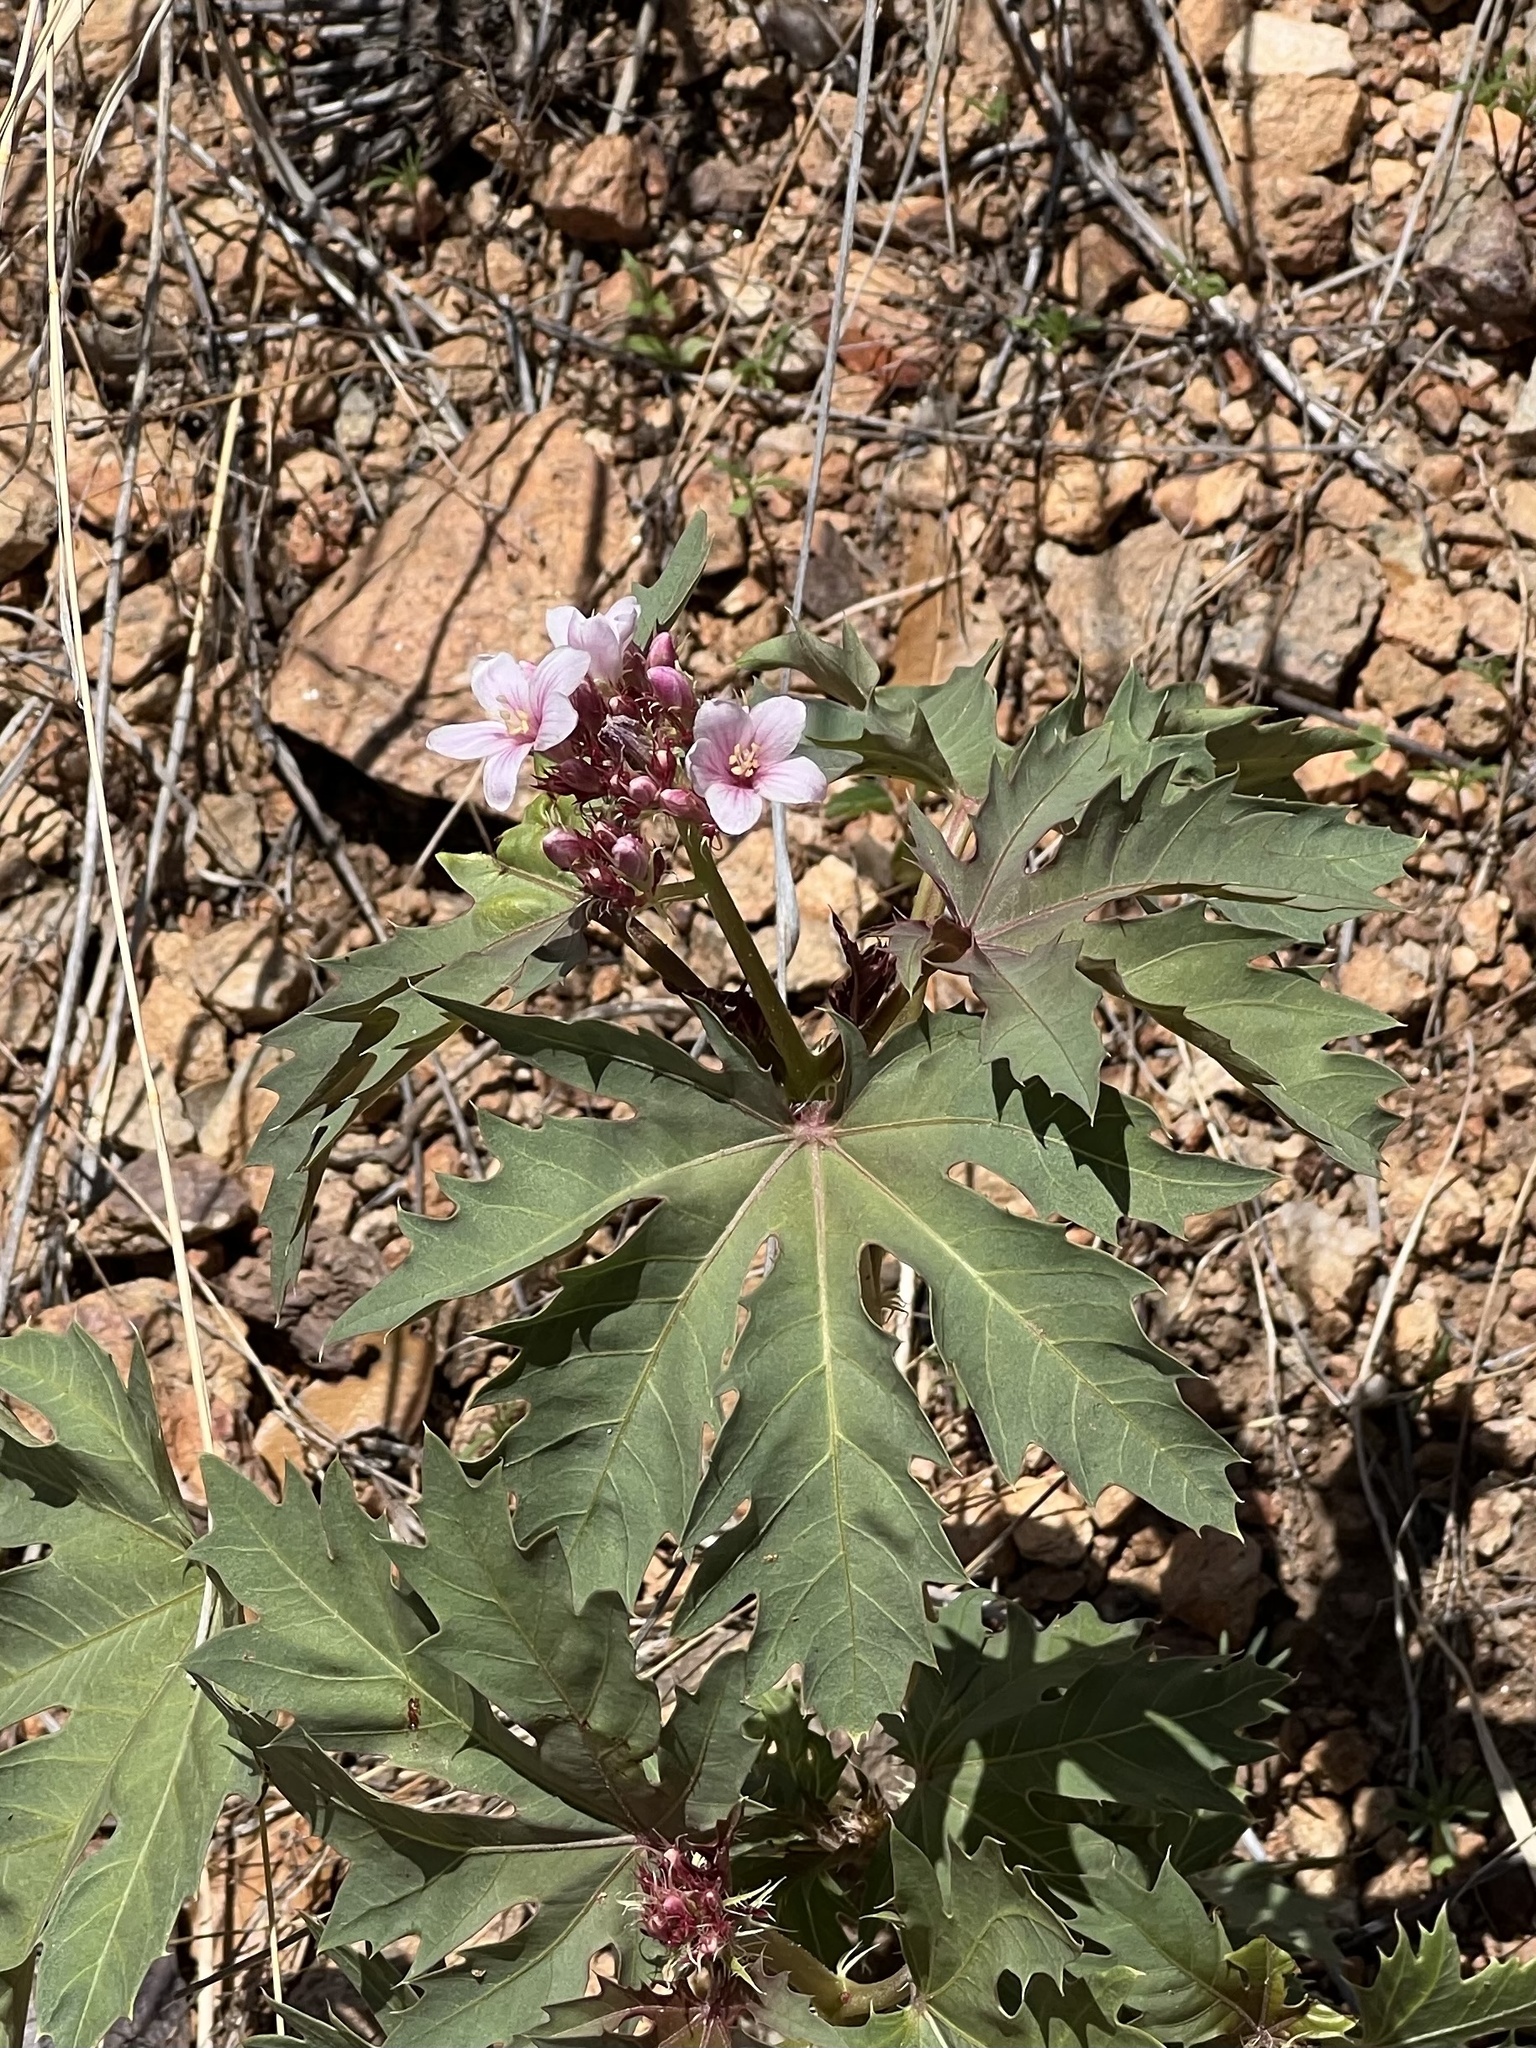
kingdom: Plantae
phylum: Tracheophyta
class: Magnoliopsida
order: Malpighiales
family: Euphorbiaceae
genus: Jatropha
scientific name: Jatropha macrorhiza
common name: Ragged nettlespurge
